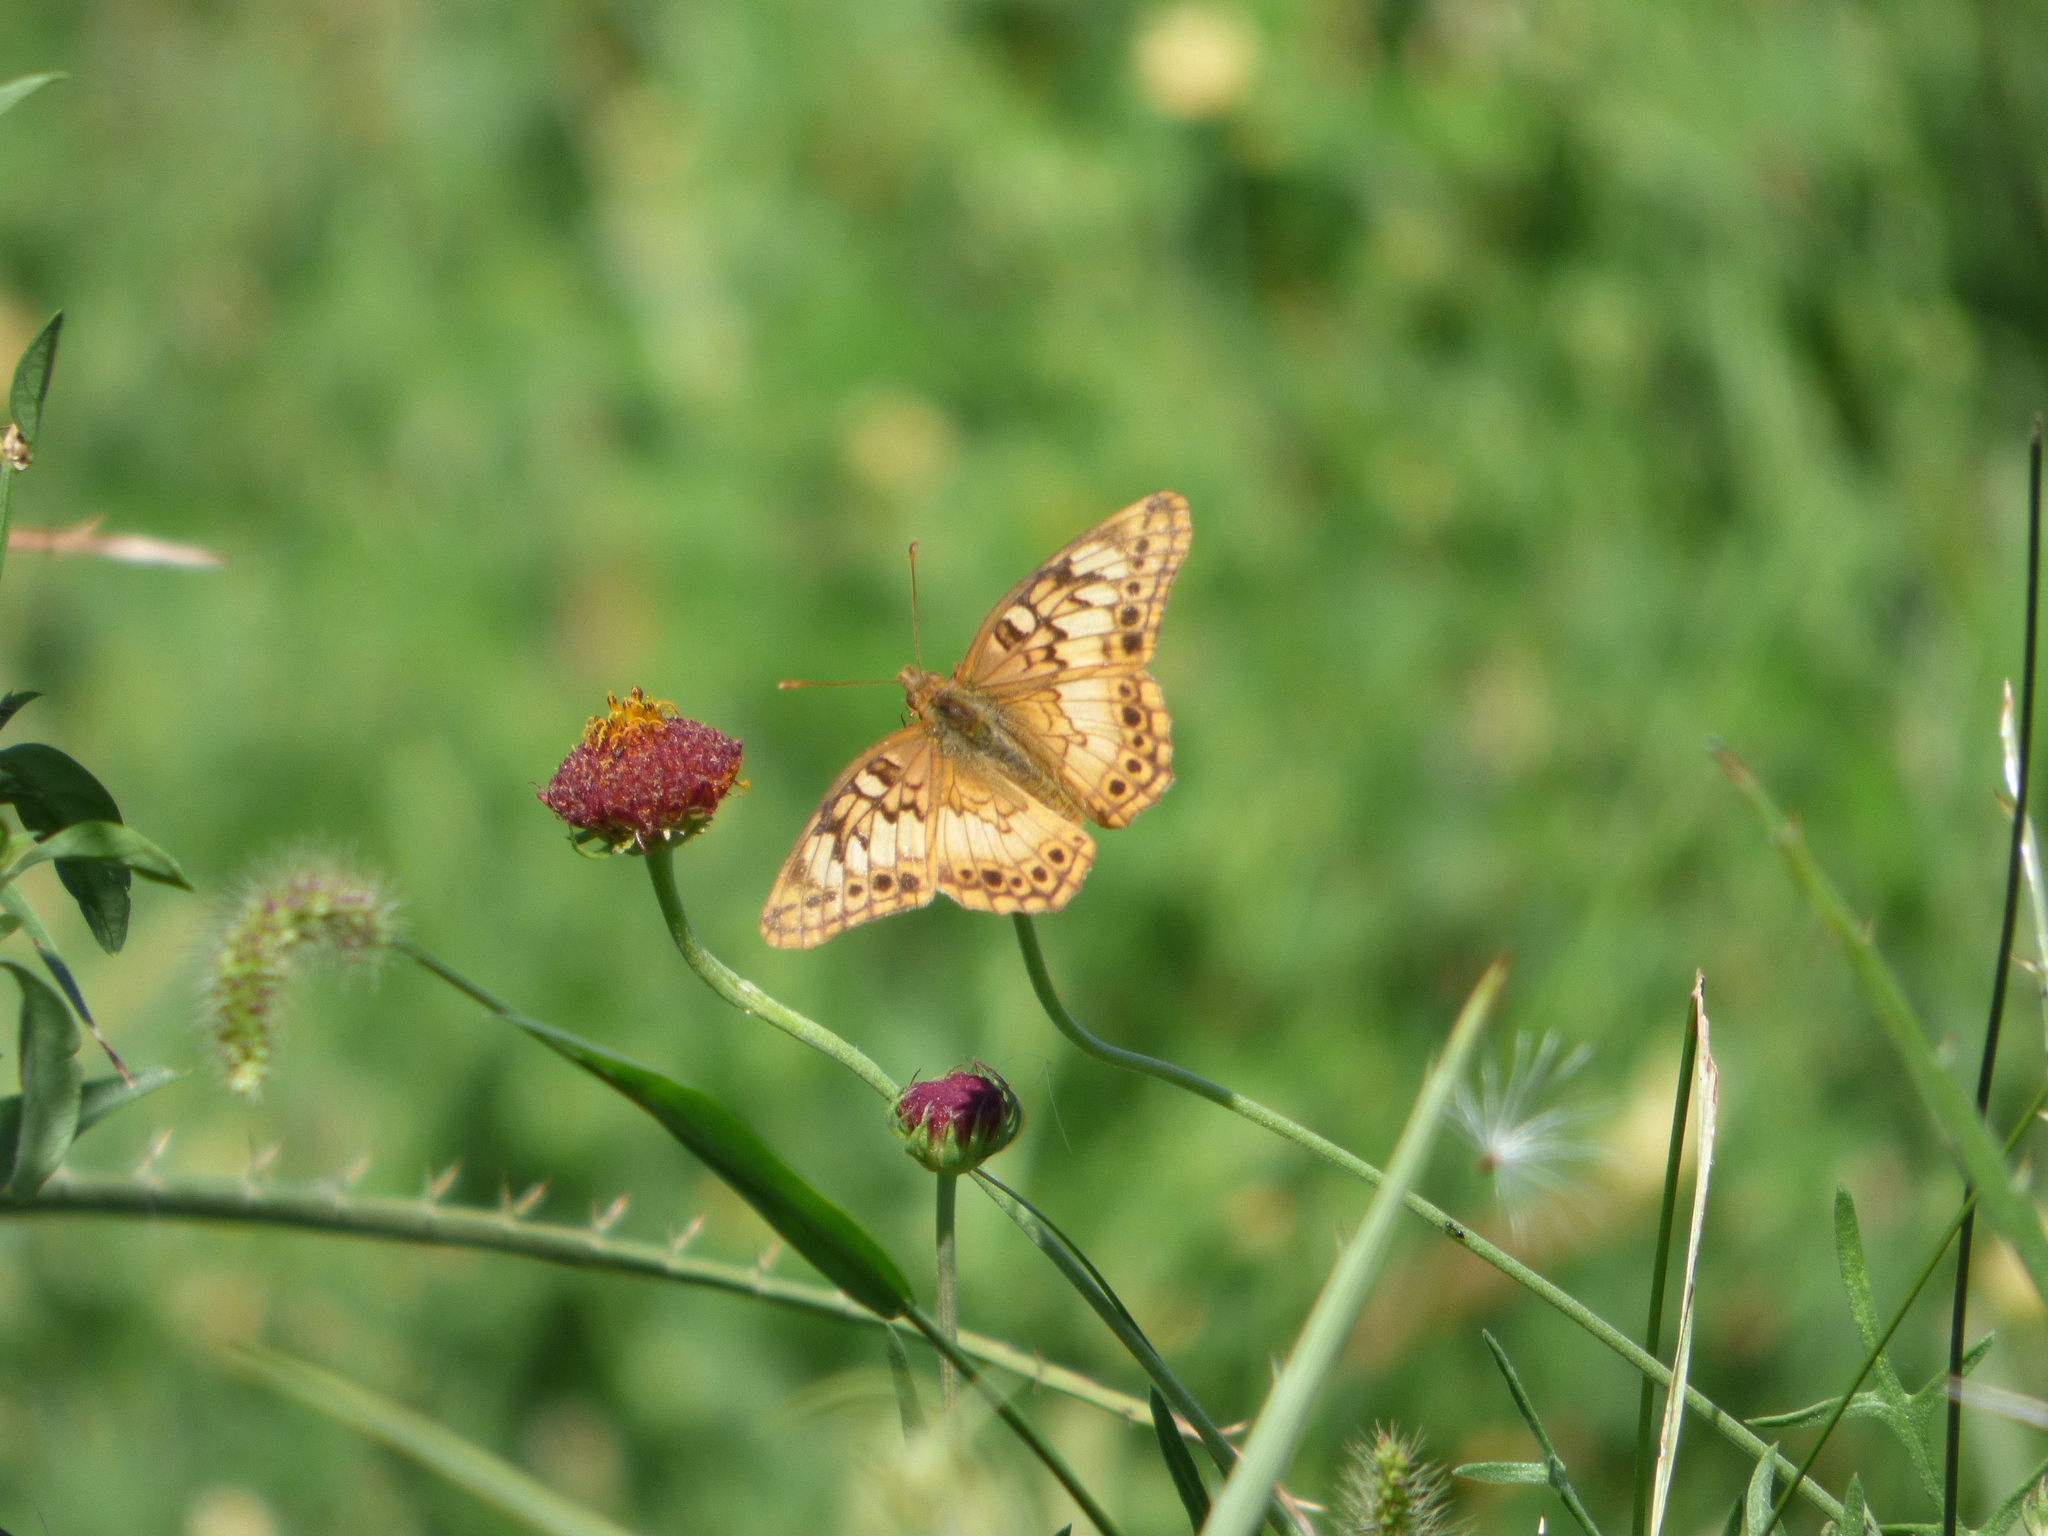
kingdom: Animalia
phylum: Arthropoda
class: Insecta
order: Lepidoptera
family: Nymphalidae
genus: Euptoieta
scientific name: Euptoieta hortensia
